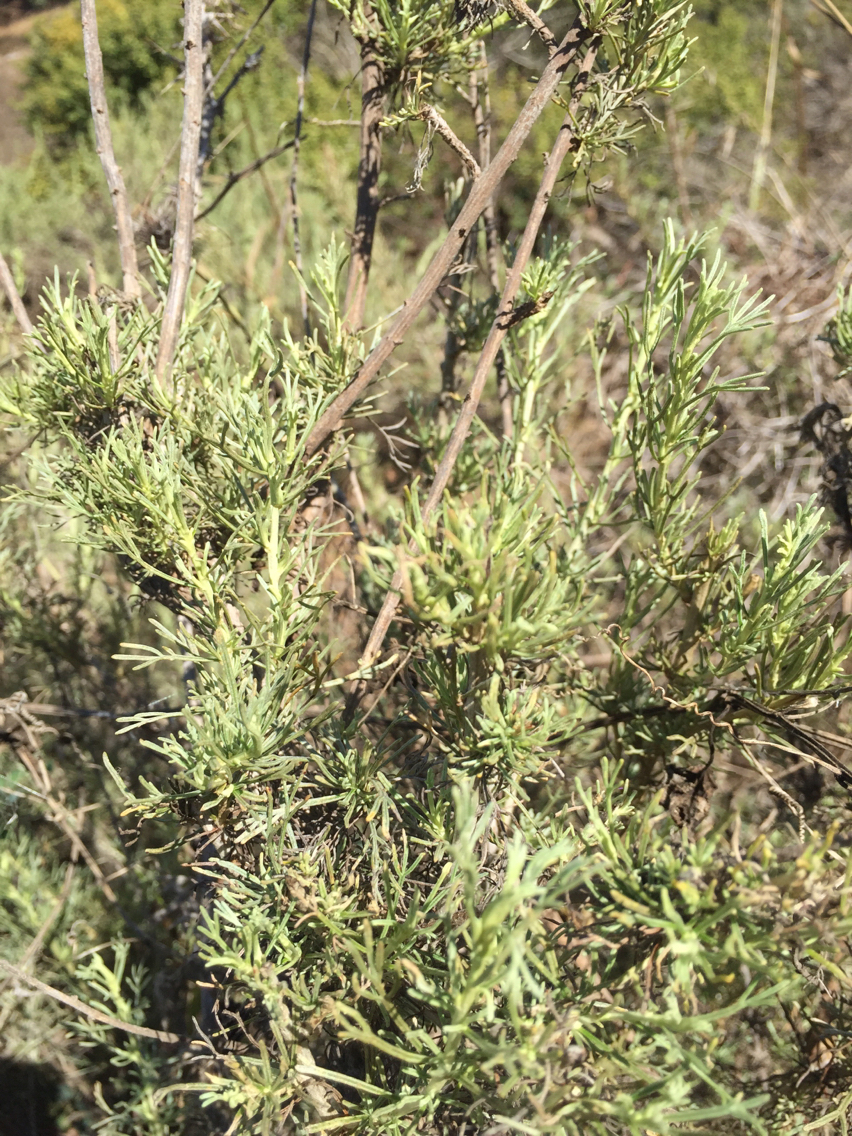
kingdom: Plantae
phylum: Tracheophyta
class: Magnoliopsida
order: Asterales
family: Asteraceae
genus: Artemisia
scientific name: Artemisia californica
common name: California sagebrush
